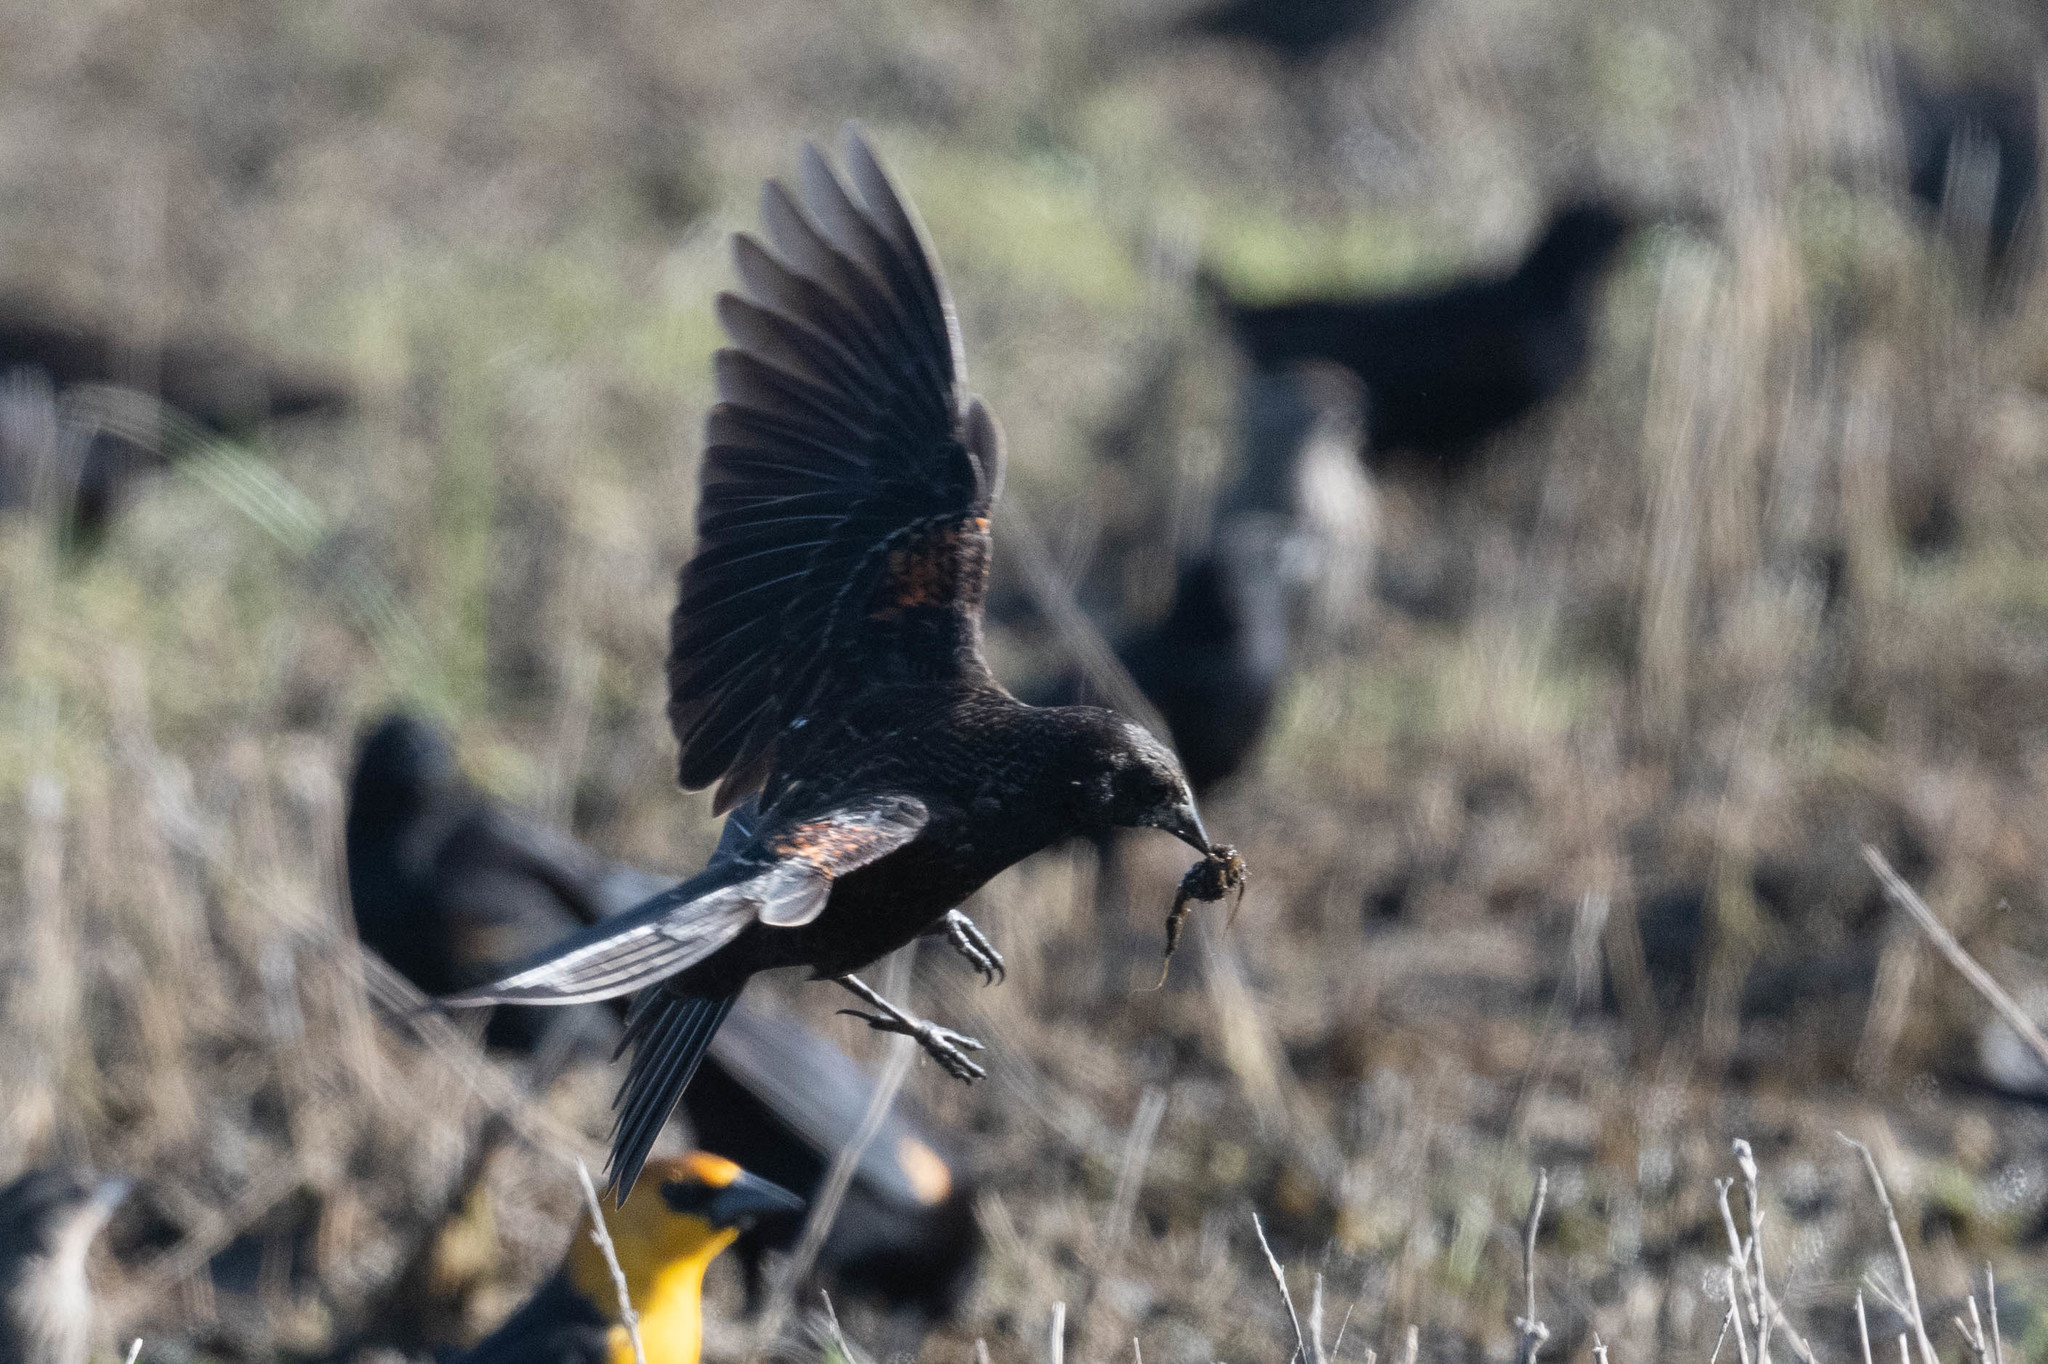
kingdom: Animalia
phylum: Chordata
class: Aves
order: Passeriformes
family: Icteridae
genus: Xanthocephalus
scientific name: Xanthocephalus xanthocephalus
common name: Yellow-headed blackbird
